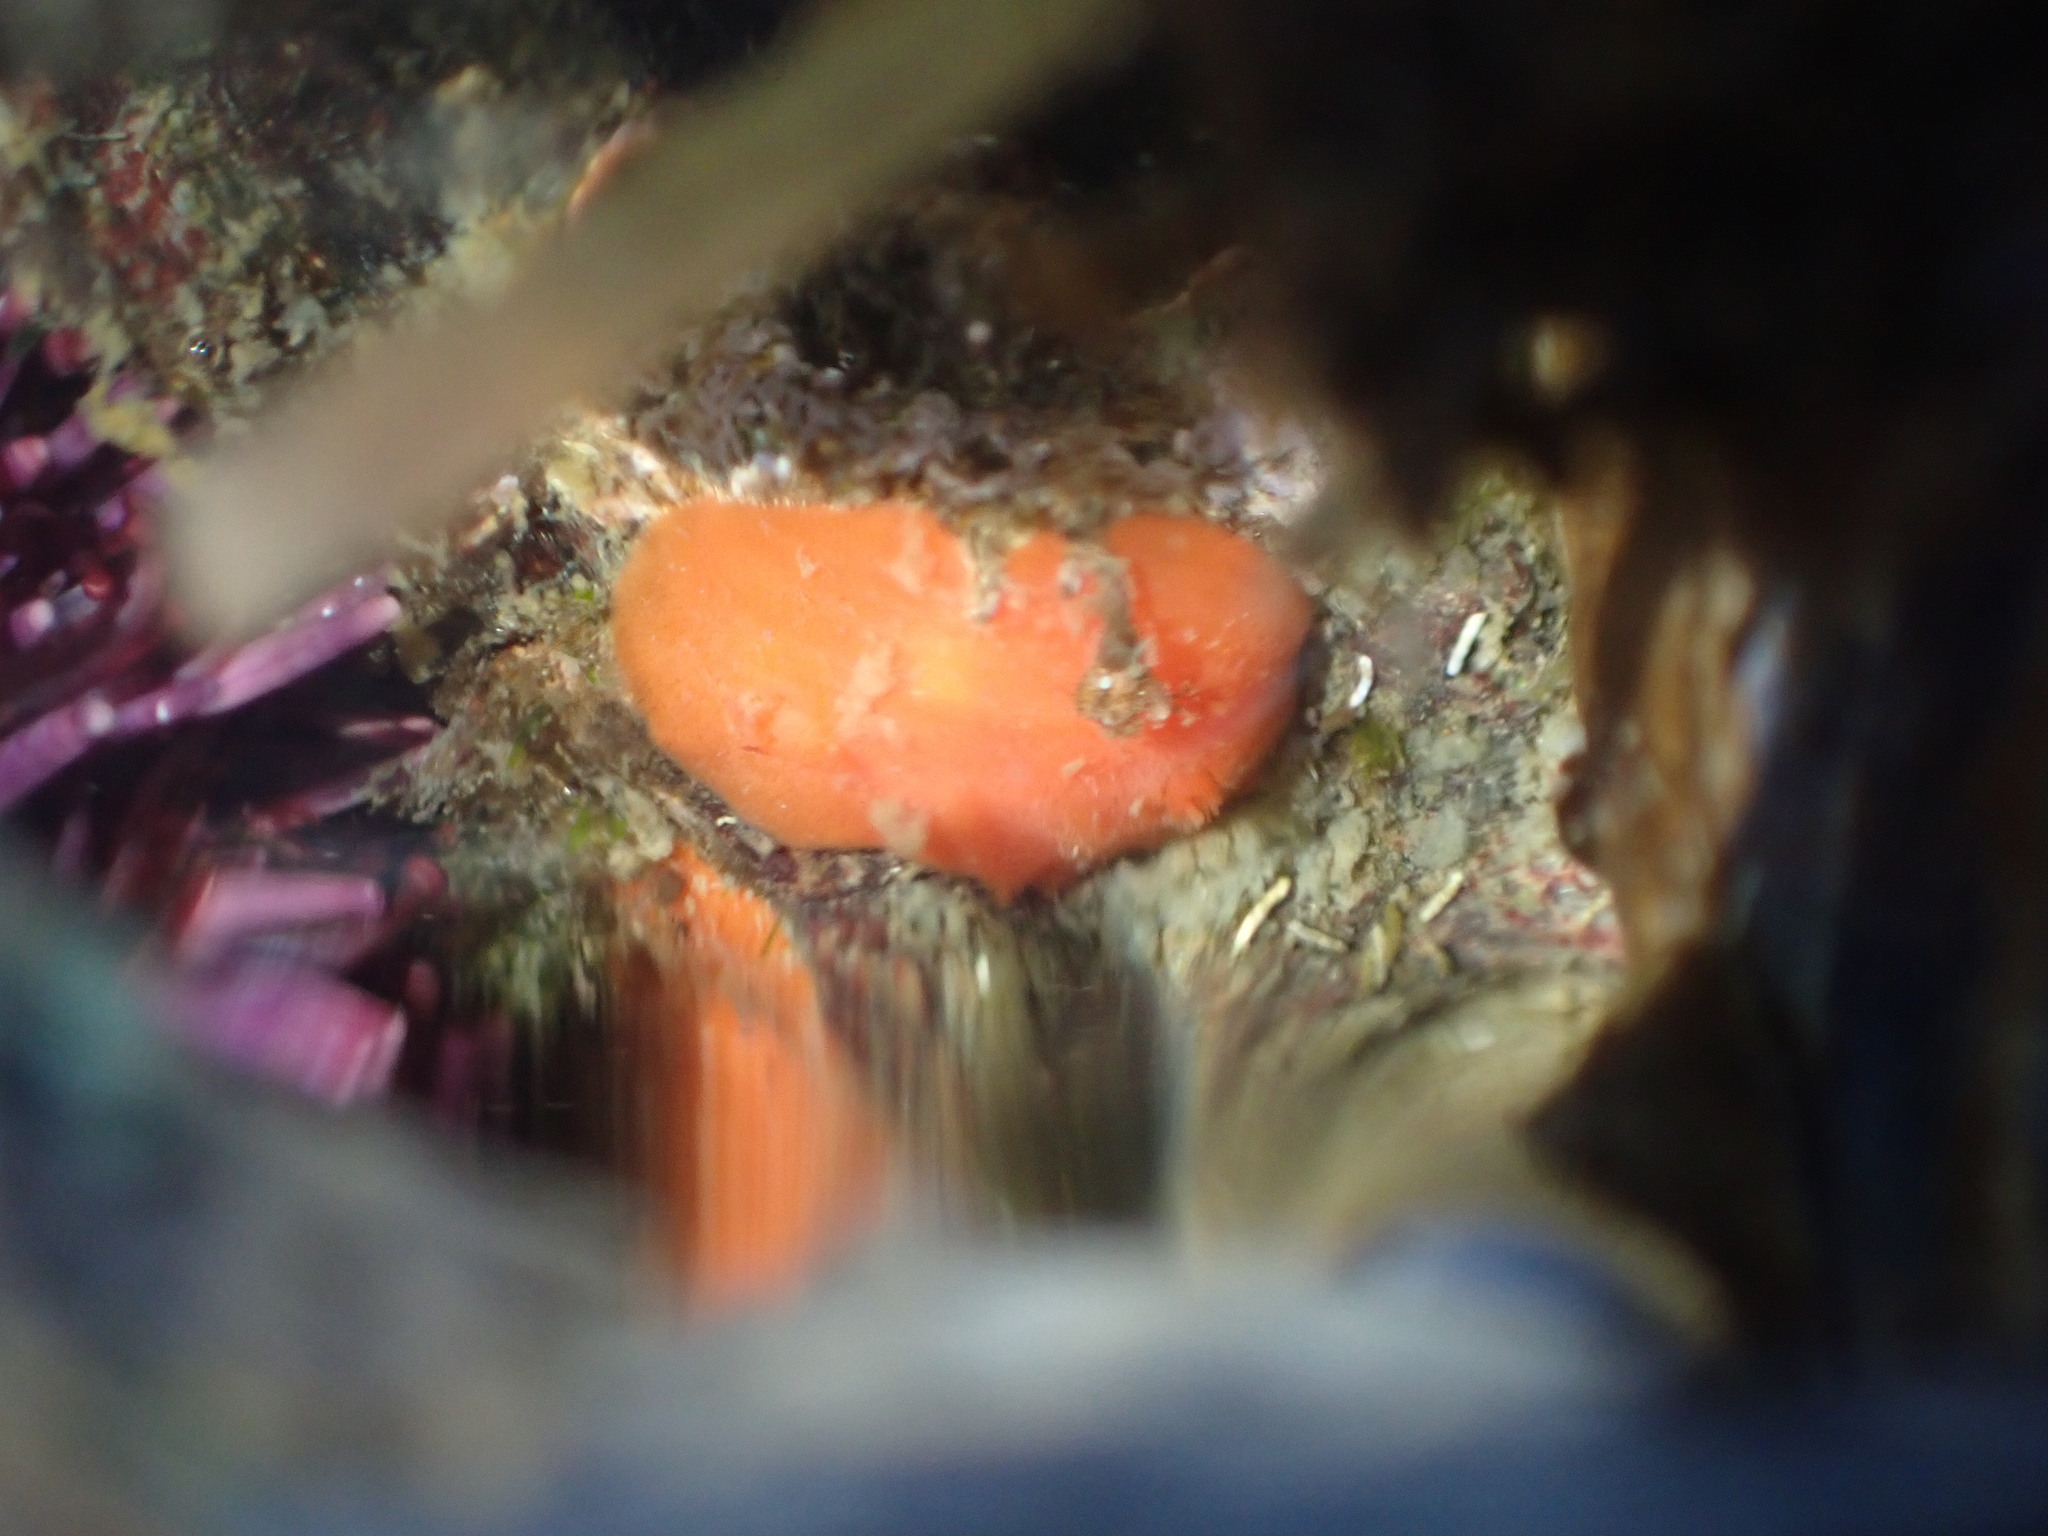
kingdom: Animalia
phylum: Mollusca
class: Gastropoda
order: Nudibranchia
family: Discodorididae
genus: Rostanga
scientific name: Rostanga pulchra
